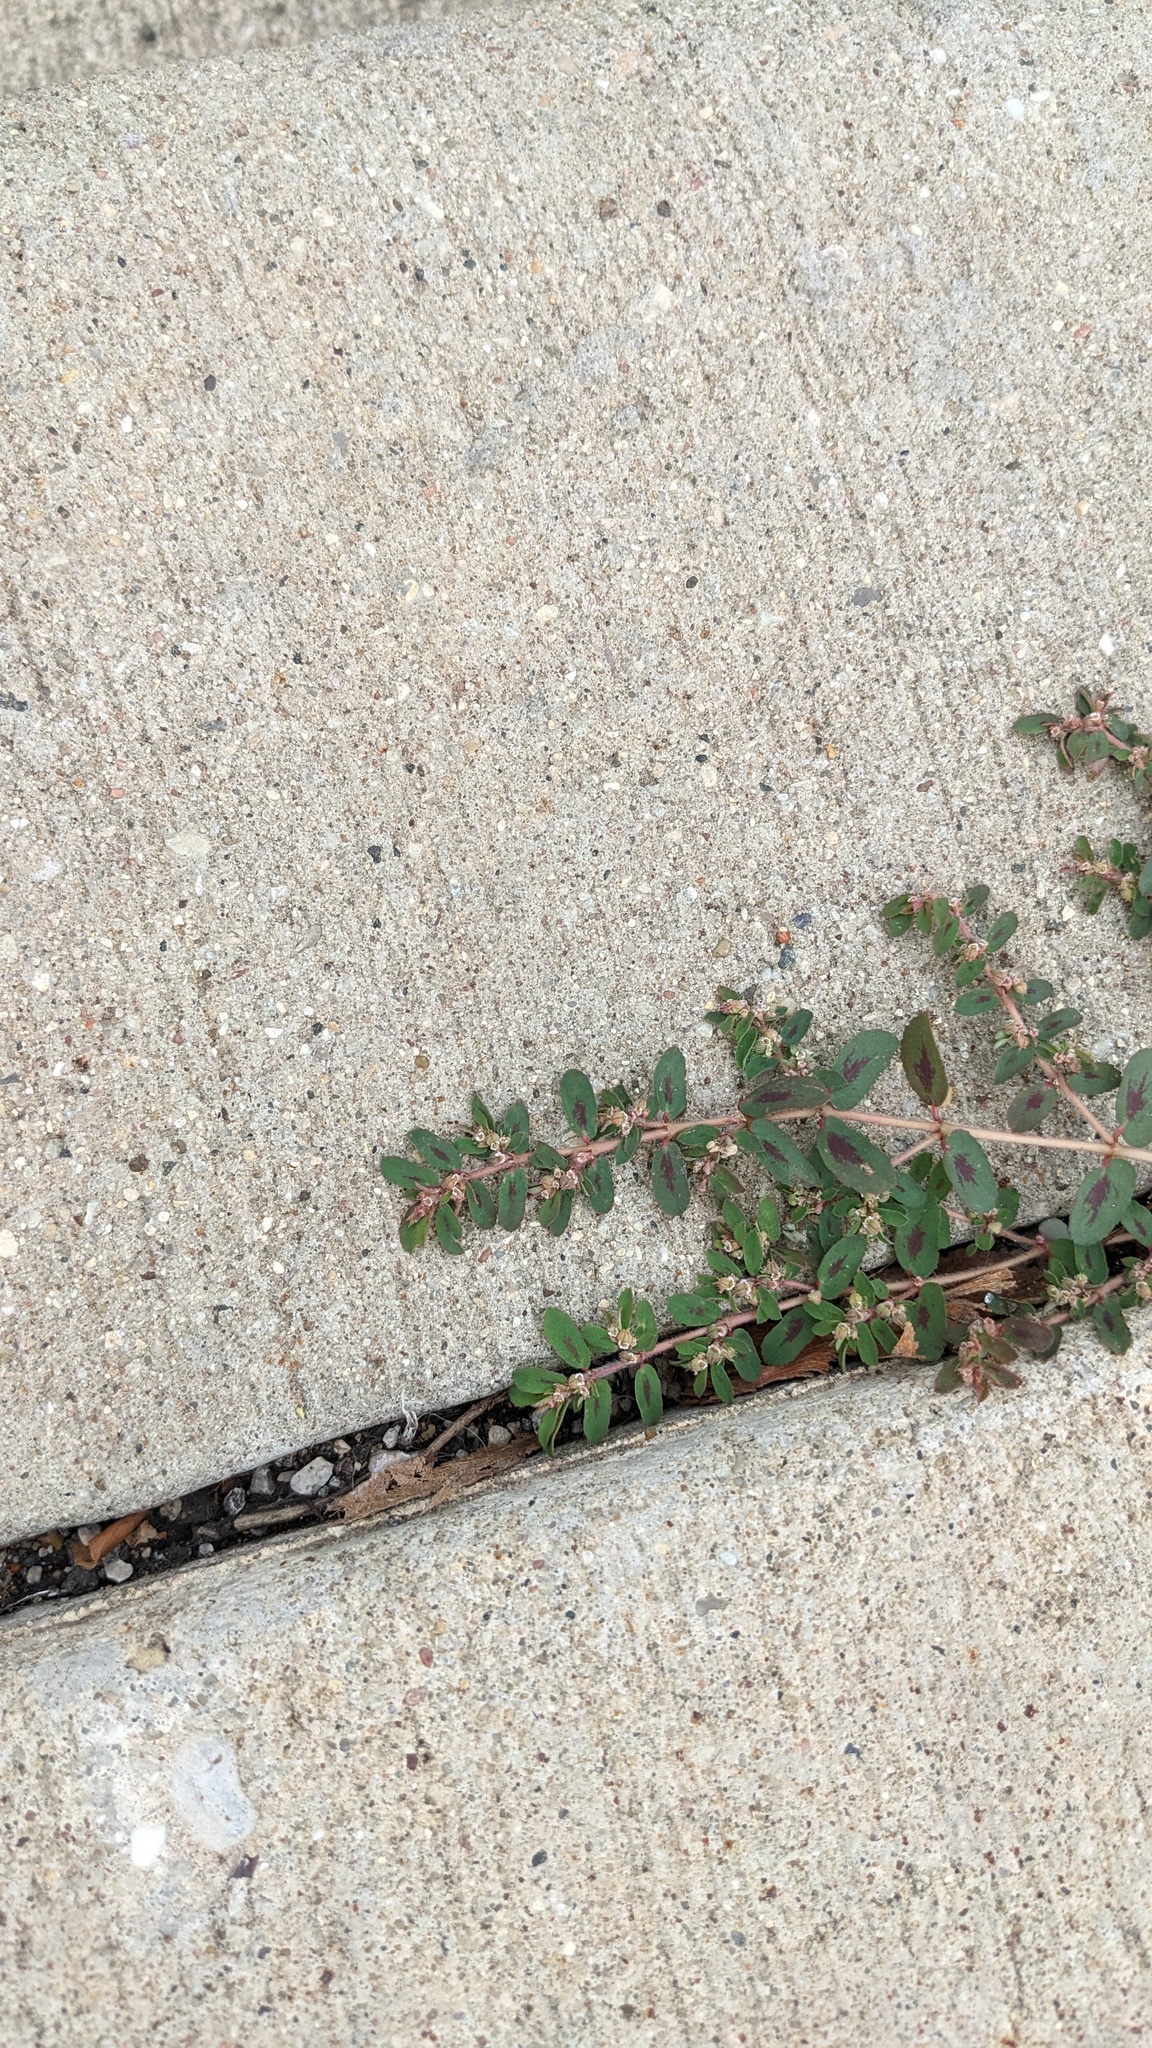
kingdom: Plantae
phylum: Tracheophyta
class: Magnoliopsida
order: Malpighiales
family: Euphorbiaceae
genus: Euphorbia
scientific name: Euphorbia maculata
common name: Spotted spurge
